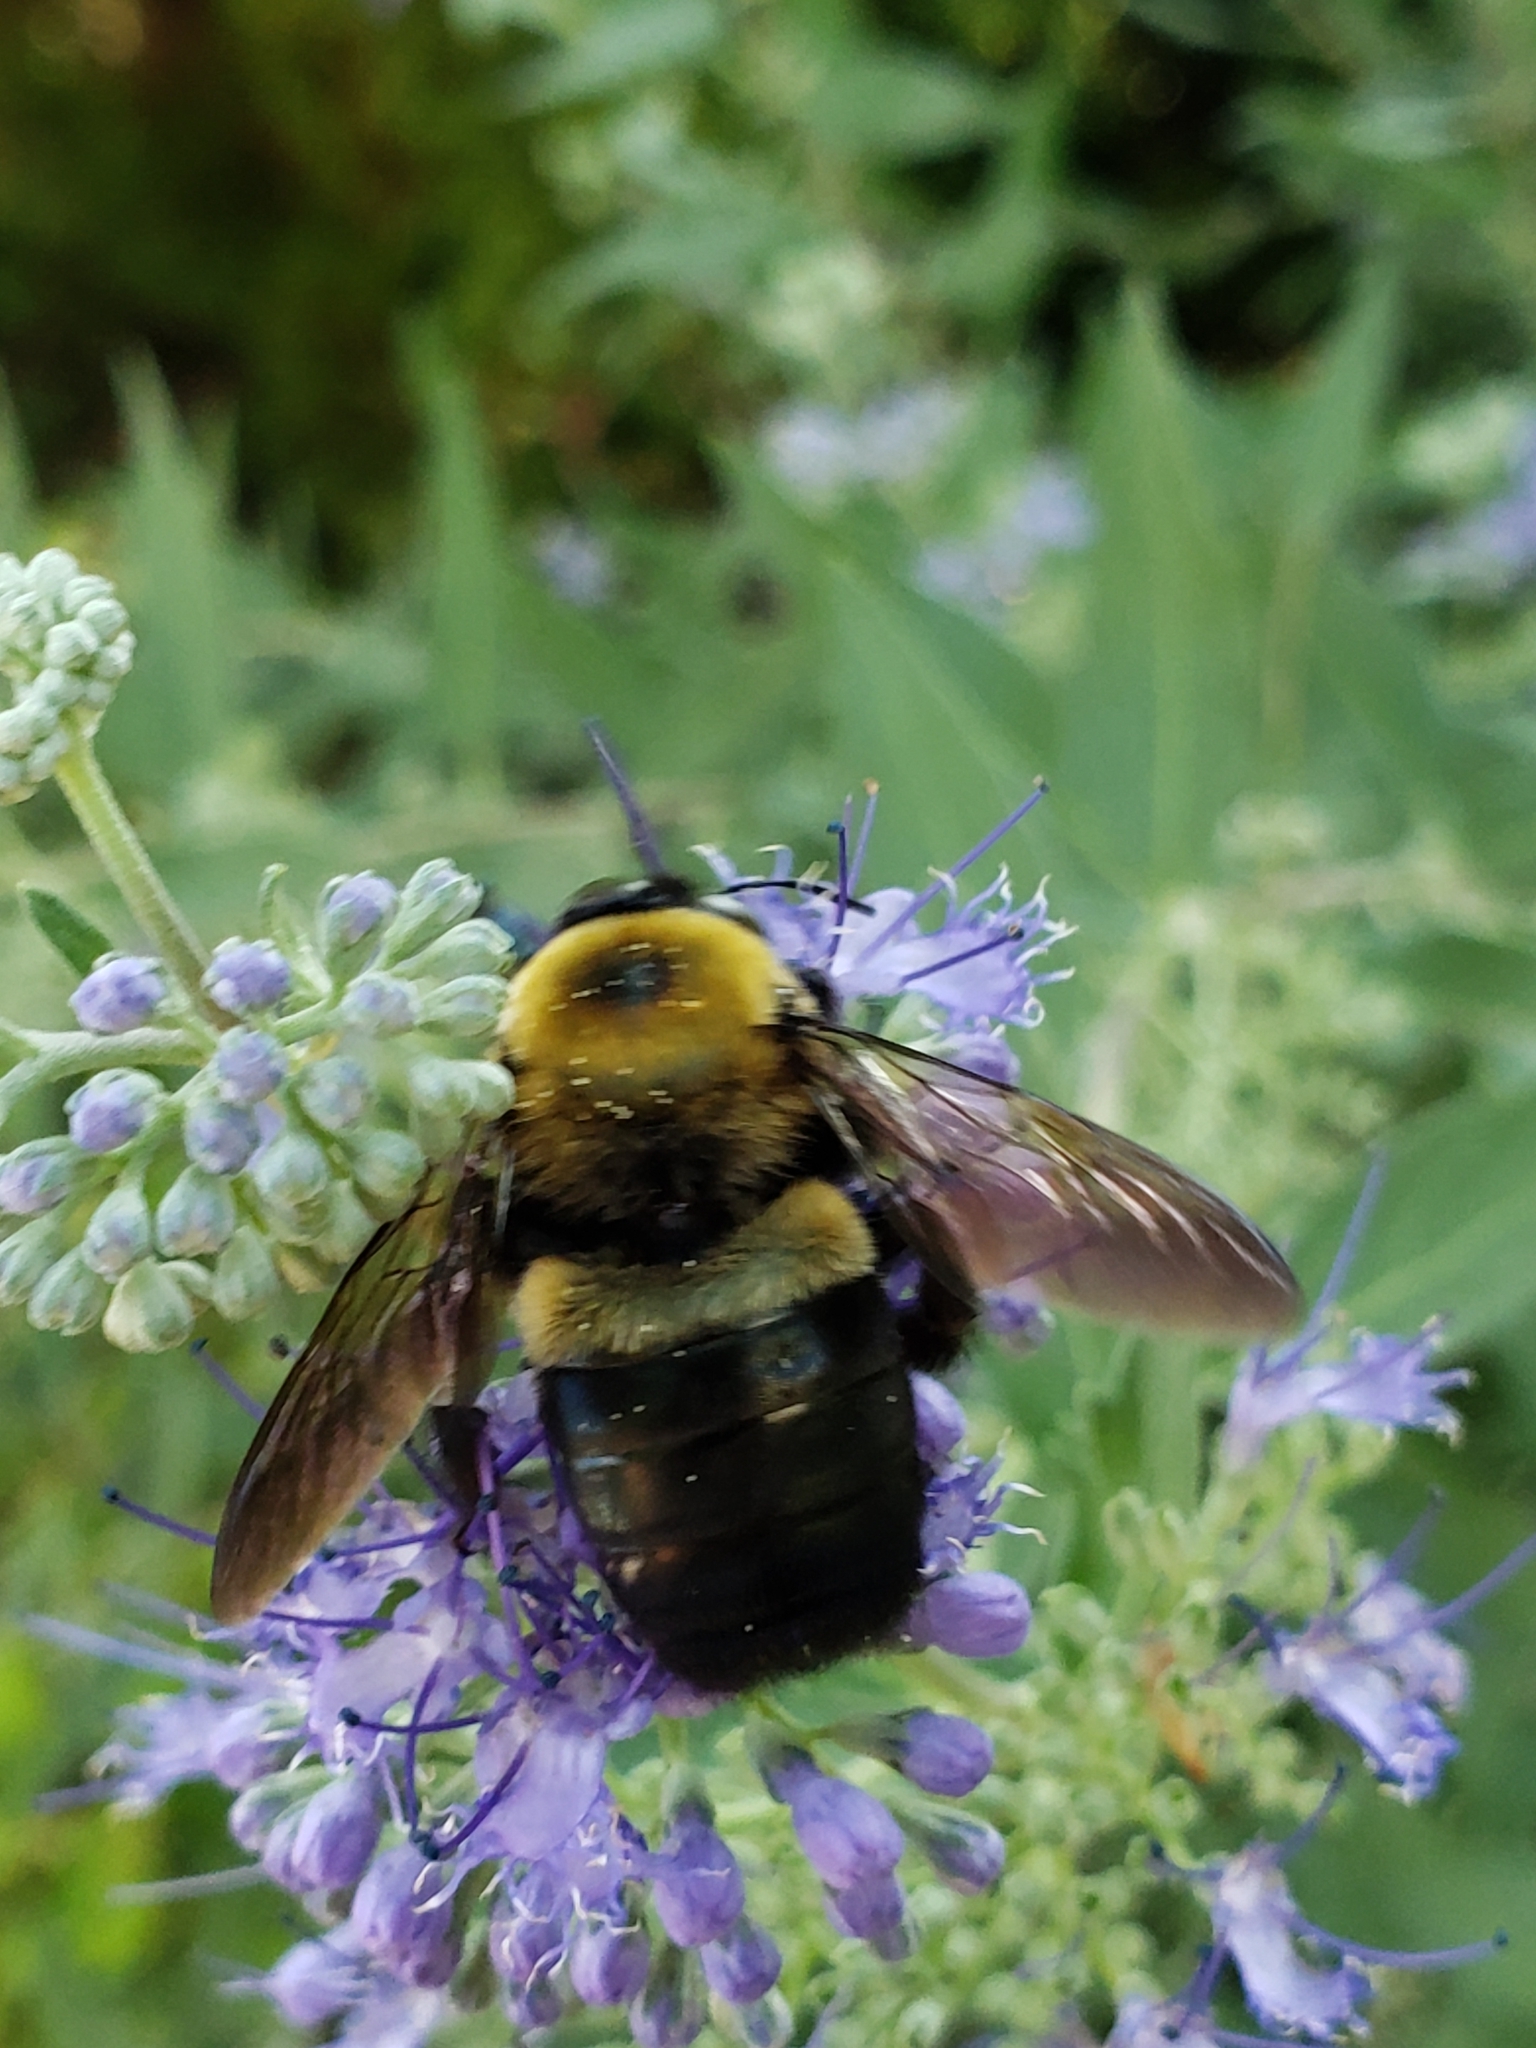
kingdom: Animalia
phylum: Arthropoda
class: Insecta
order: Hymenoptera
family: Apidae
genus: Xylocopa
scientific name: Xylocopa virginica
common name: Carpenter bee
